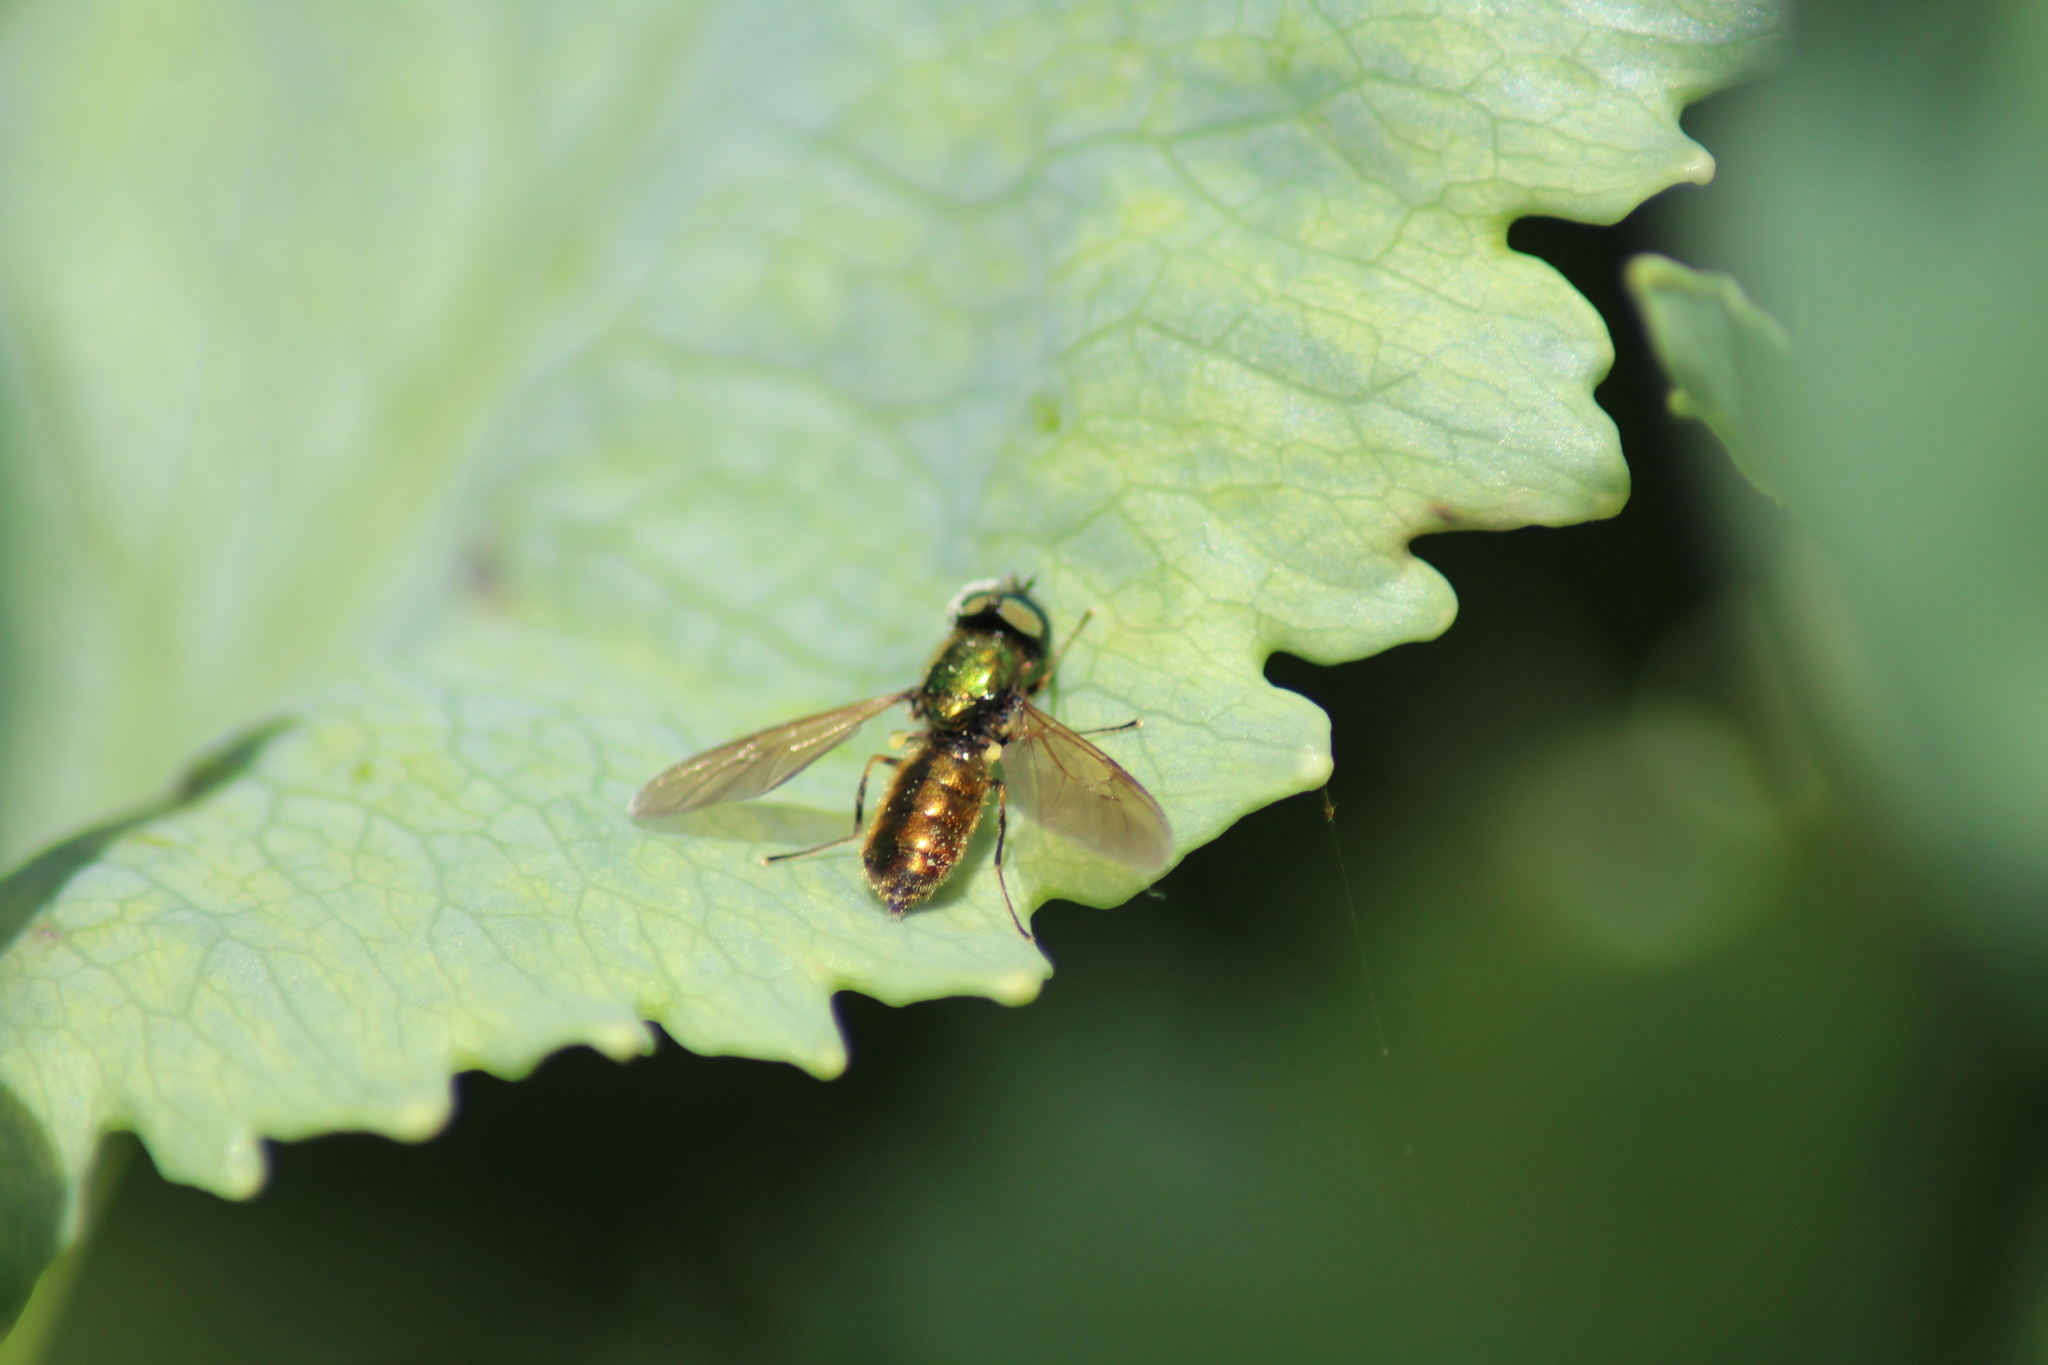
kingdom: Animalia
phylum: Arthropoda
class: Insecta
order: Diptera
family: Stratiomyidae
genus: Chloromyia
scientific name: Chloromyia formosa
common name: Soldier fly
